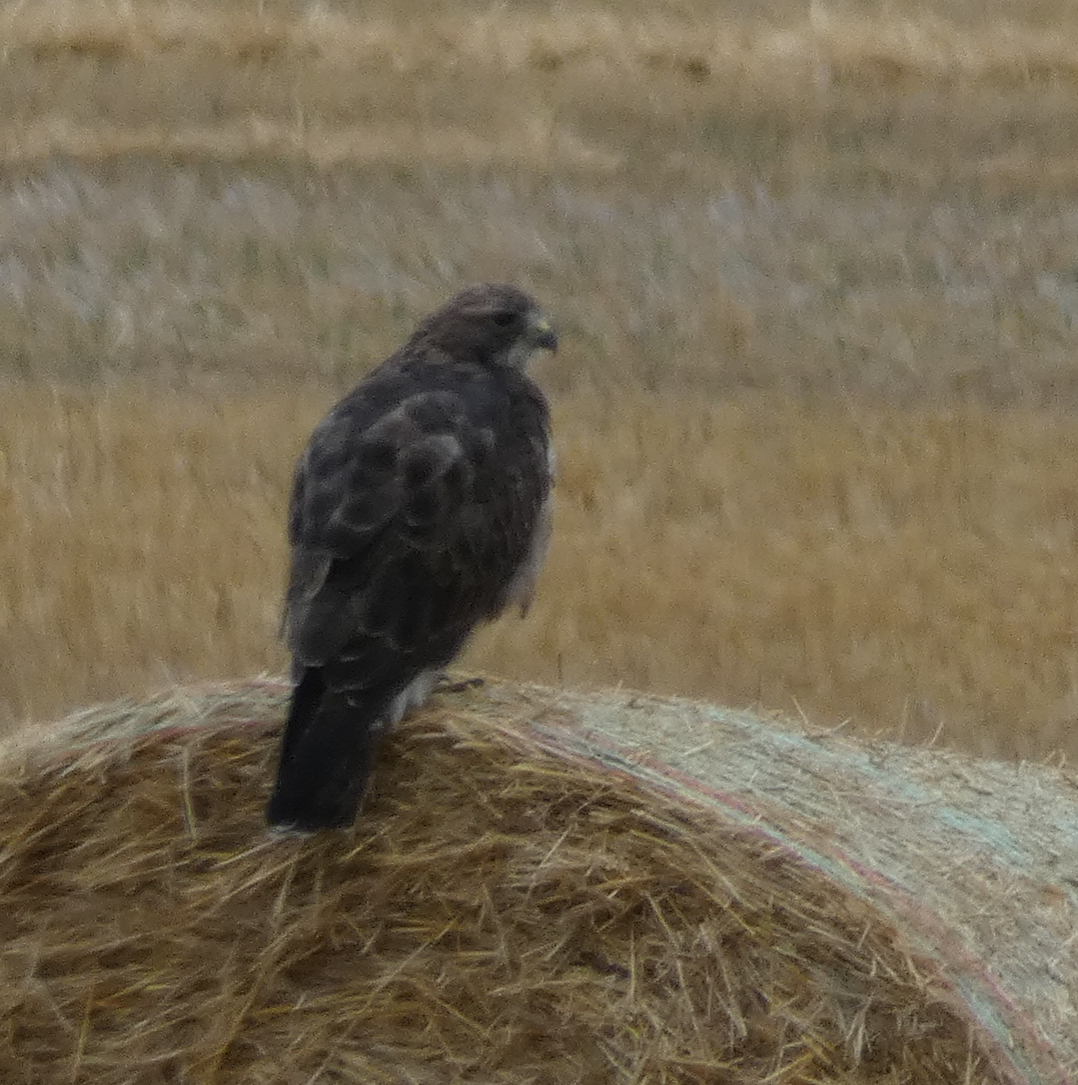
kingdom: Animalia
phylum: Chordata
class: Aves
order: Accipitriformes
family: Accipitridae
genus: Buteo
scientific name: Buteo swainsoni
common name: Swainson's hawk
